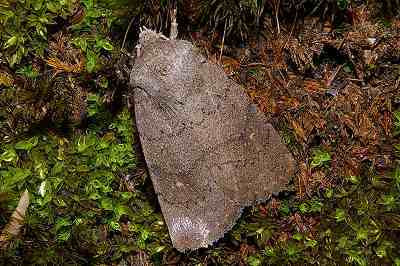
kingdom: Animalia
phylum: Arthropoda
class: Insecta
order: Lepidoptera
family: Noctuidae
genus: Athetis
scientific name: Athetis cinerascens
